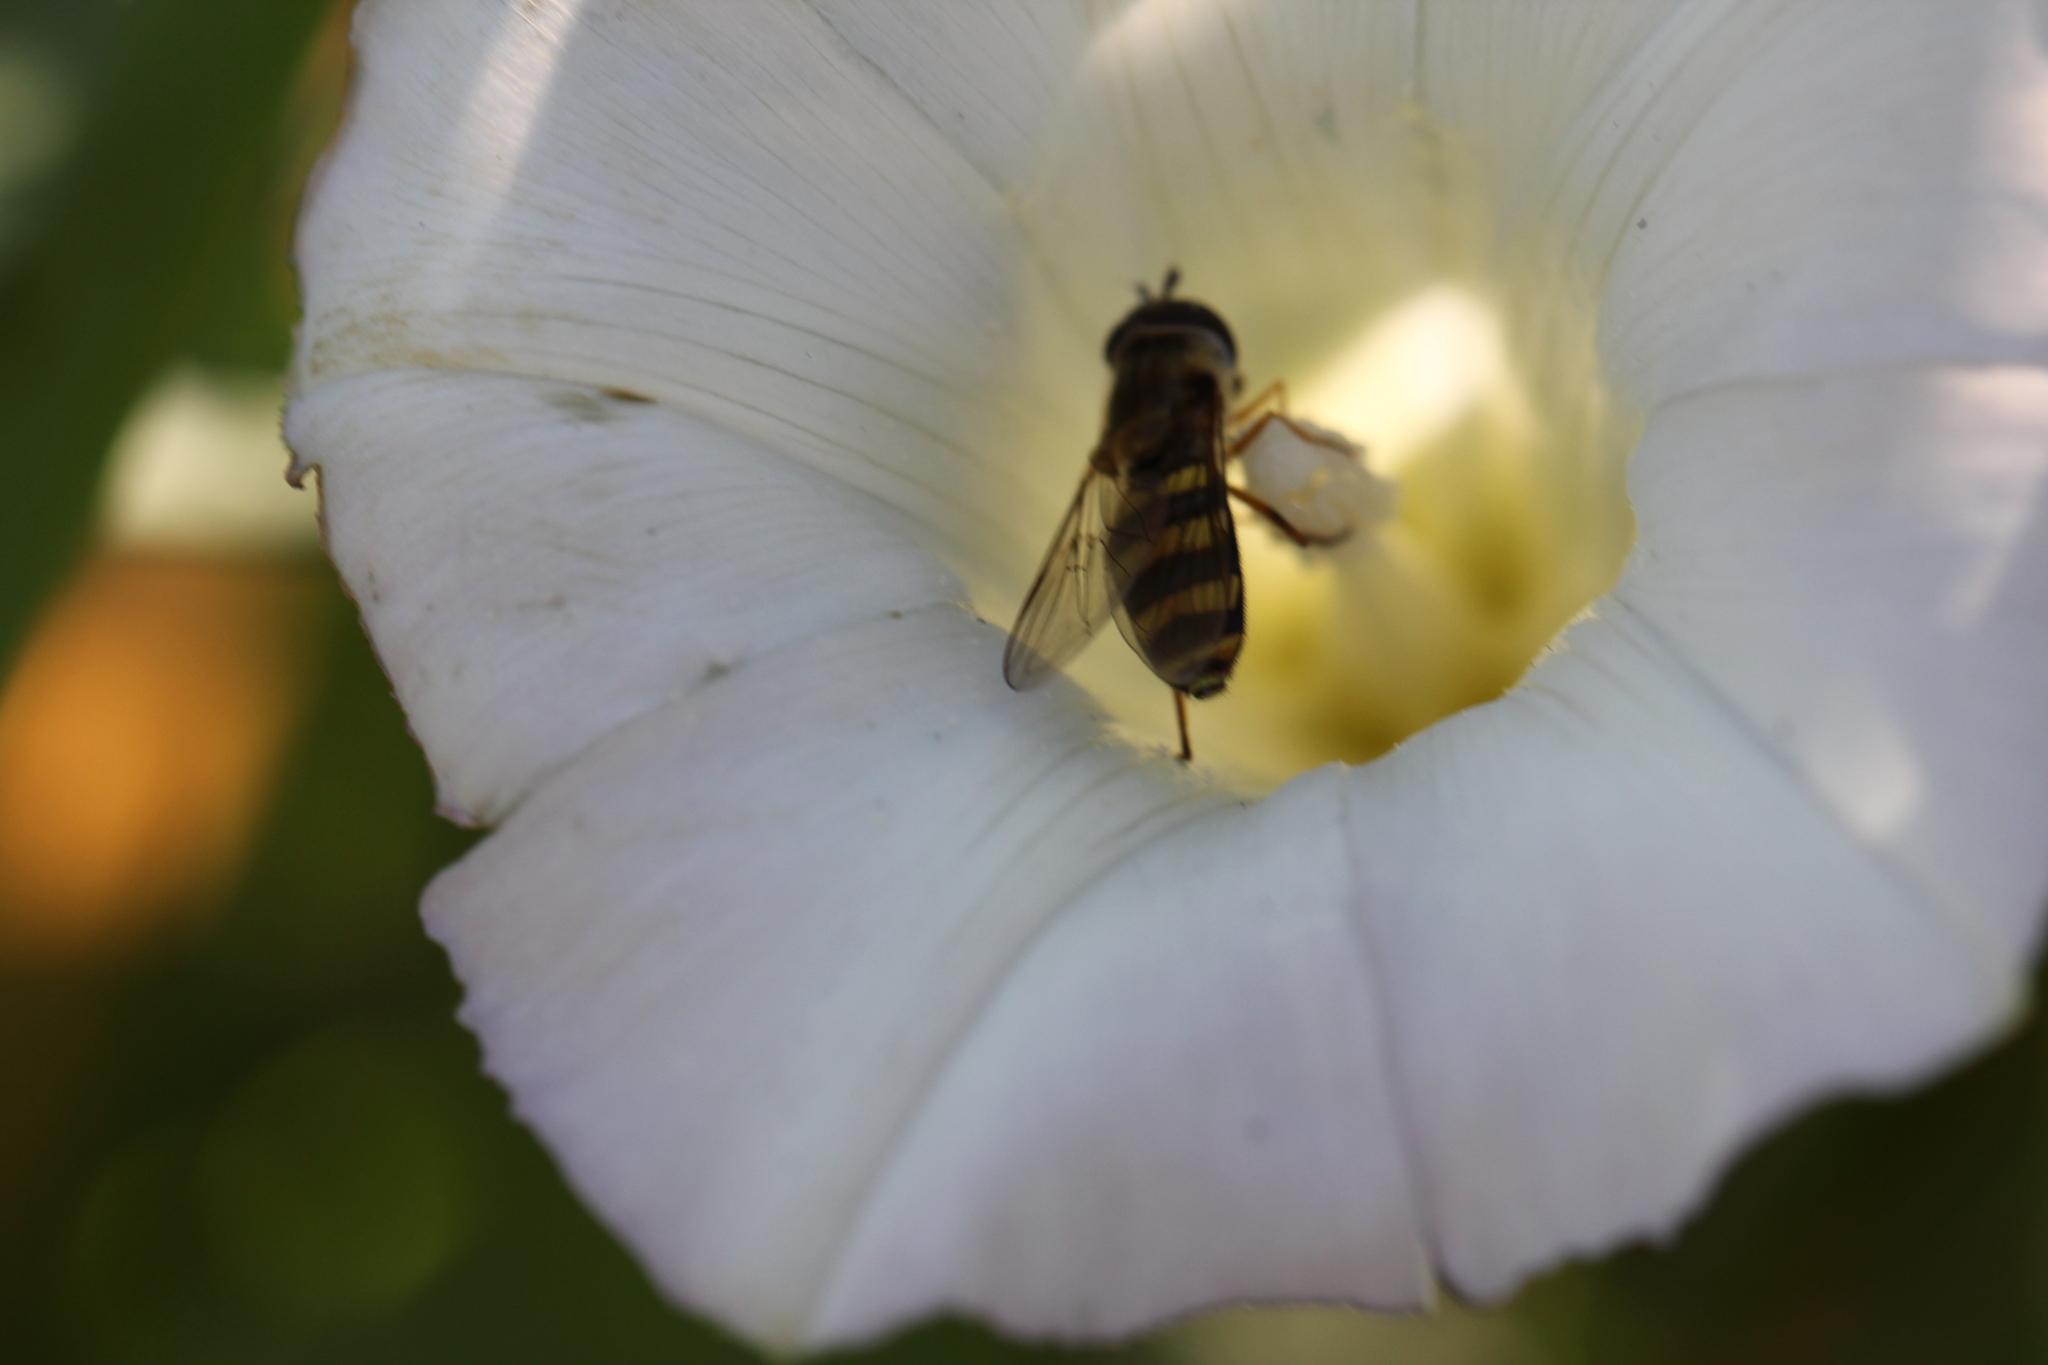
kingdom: Animalia
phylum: Arthropoda
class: Insecta
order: Diptera
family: Syrphidae
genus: Eupeodes
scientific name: Eupeodes
